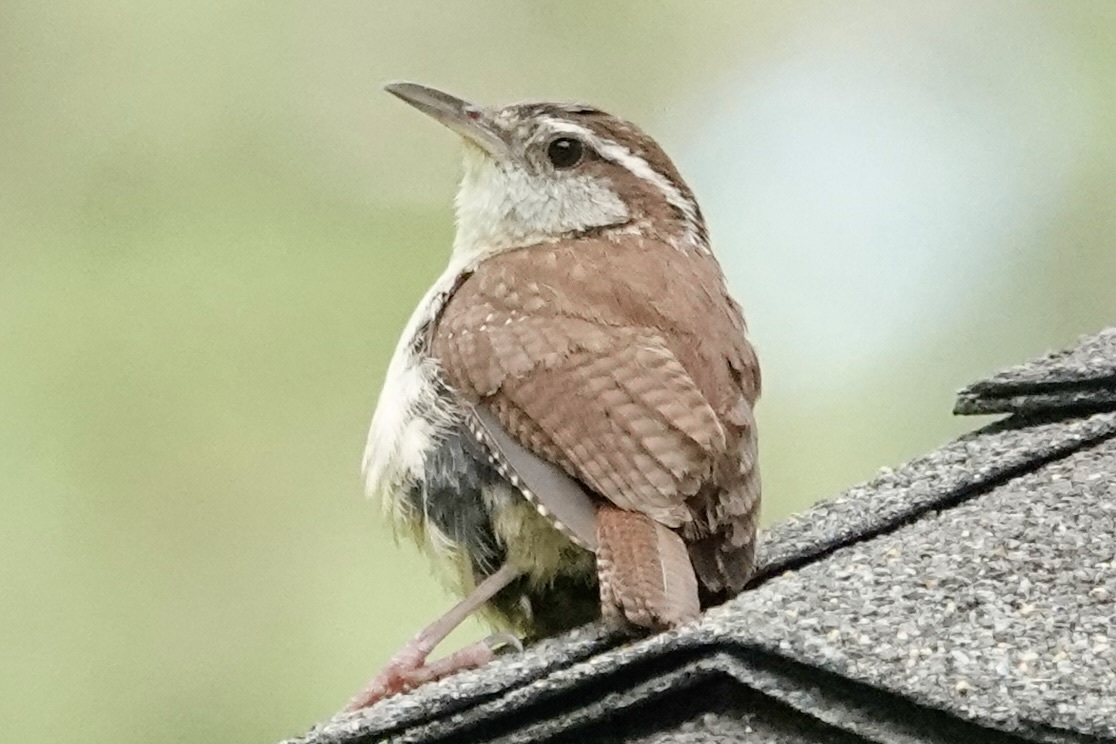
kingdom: Animalia
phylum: Chordata
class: Aves
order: Passeriformes
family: Troglodytidae
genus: Thryothorus
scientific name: Thryothorus ludovicianus
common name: Carolina wren
